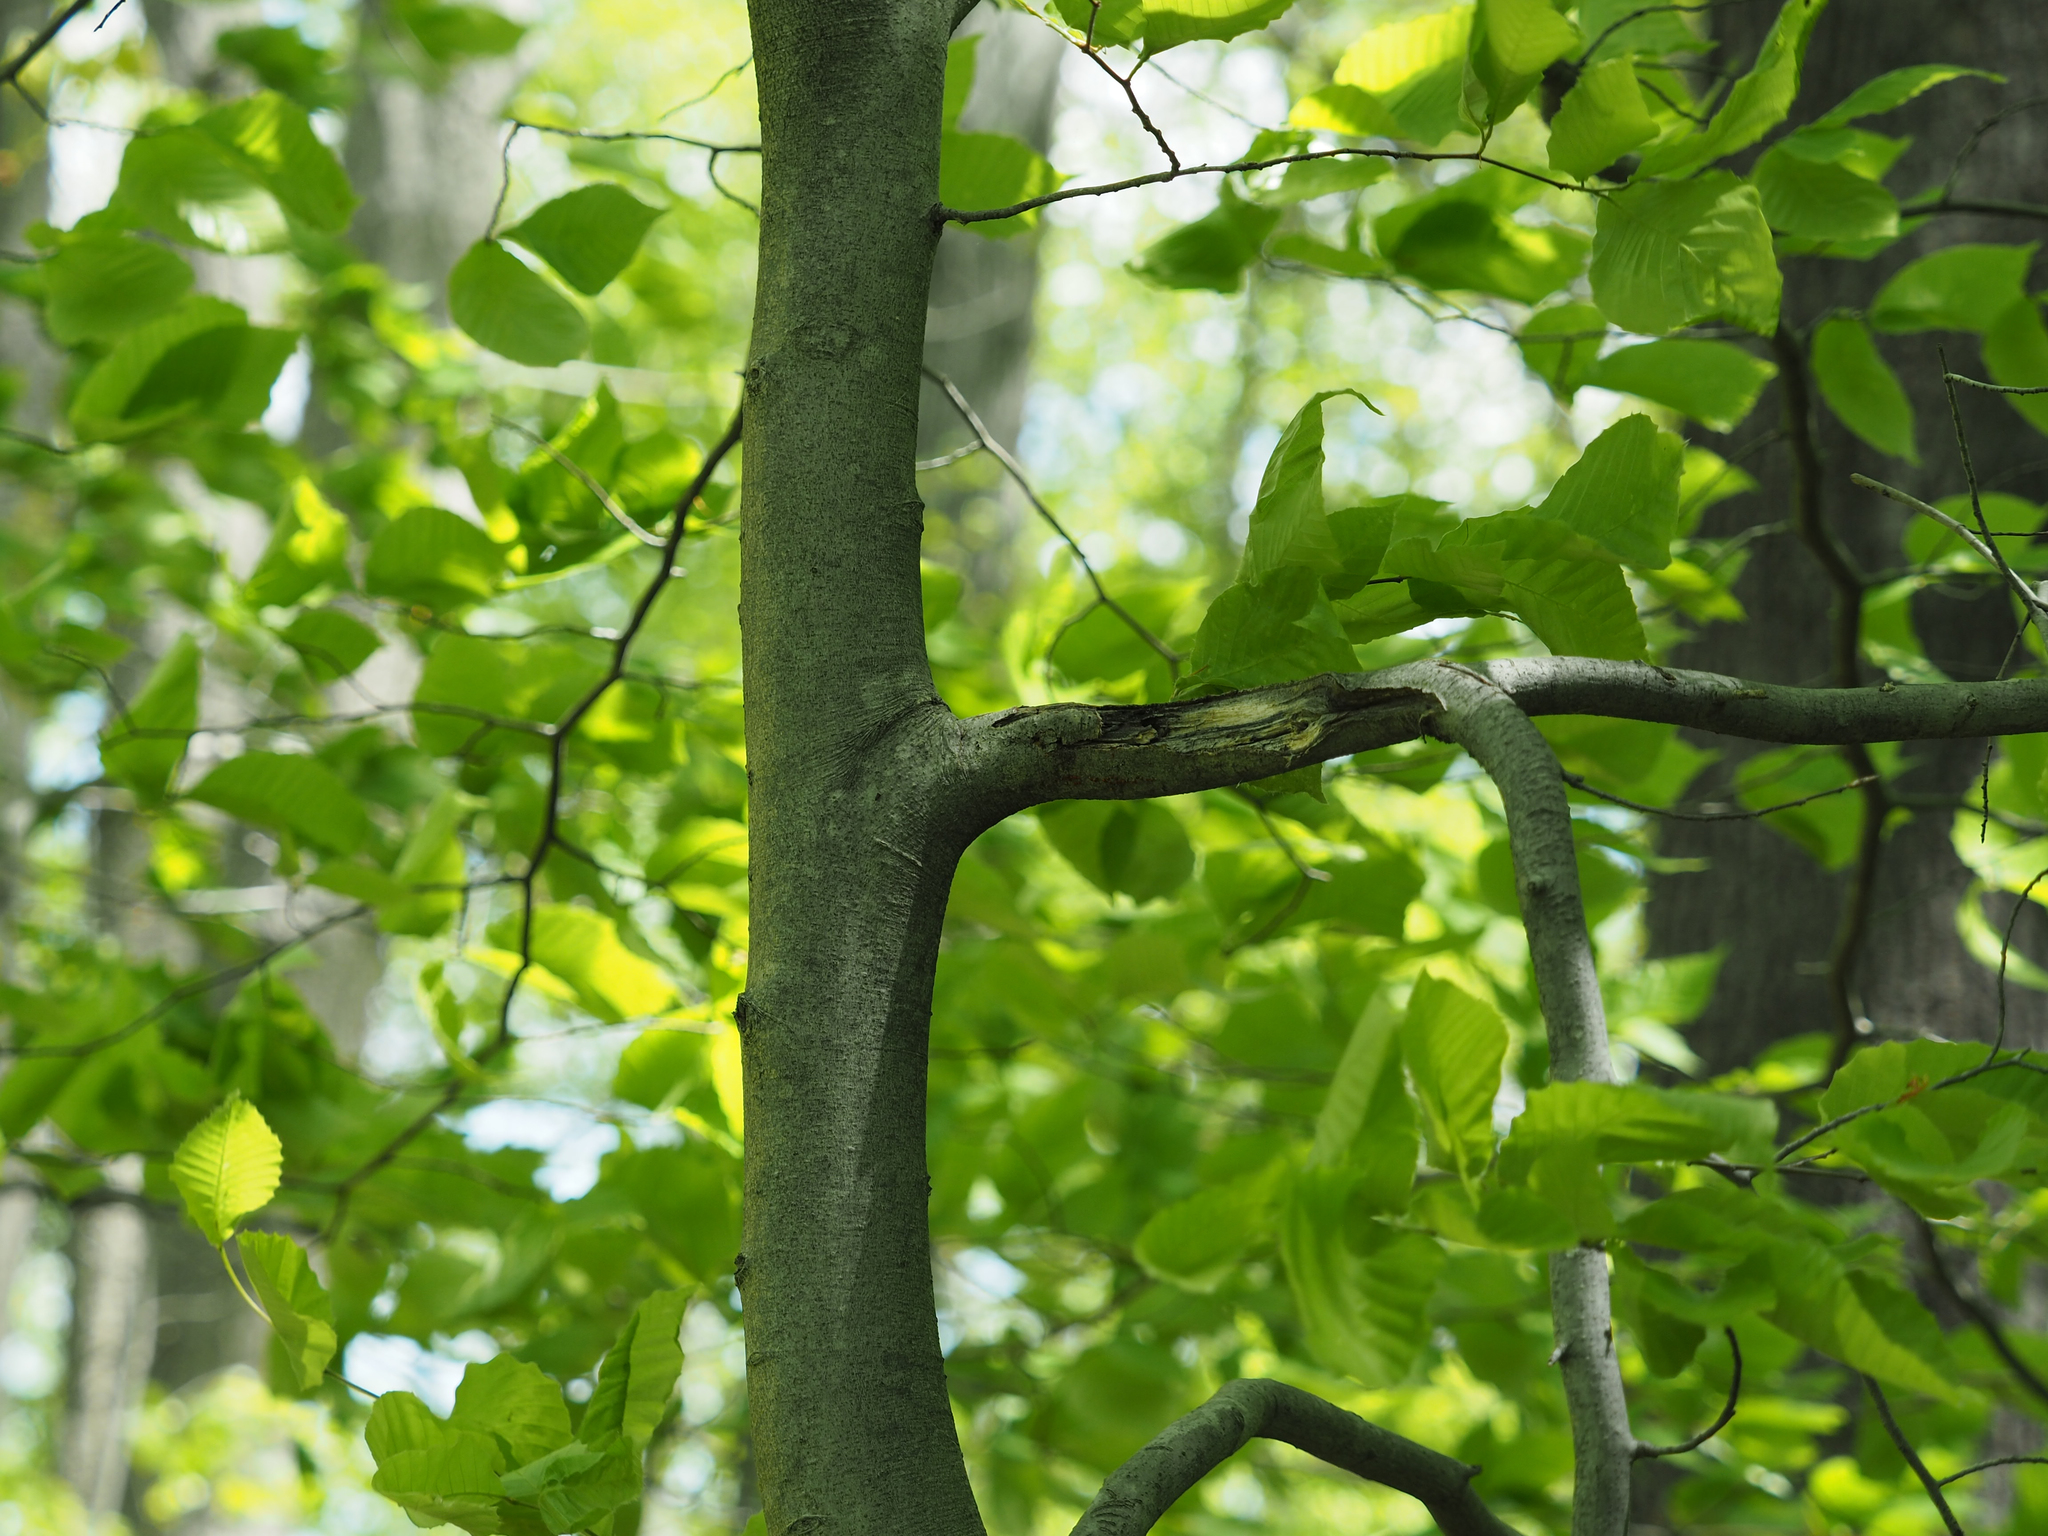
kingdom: Plantae
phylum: Tracheophyta
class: Magnoliopsida
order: Fagales
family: Fagaceae
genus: Fagus
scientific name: Fagus grandifolia
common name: American beech
